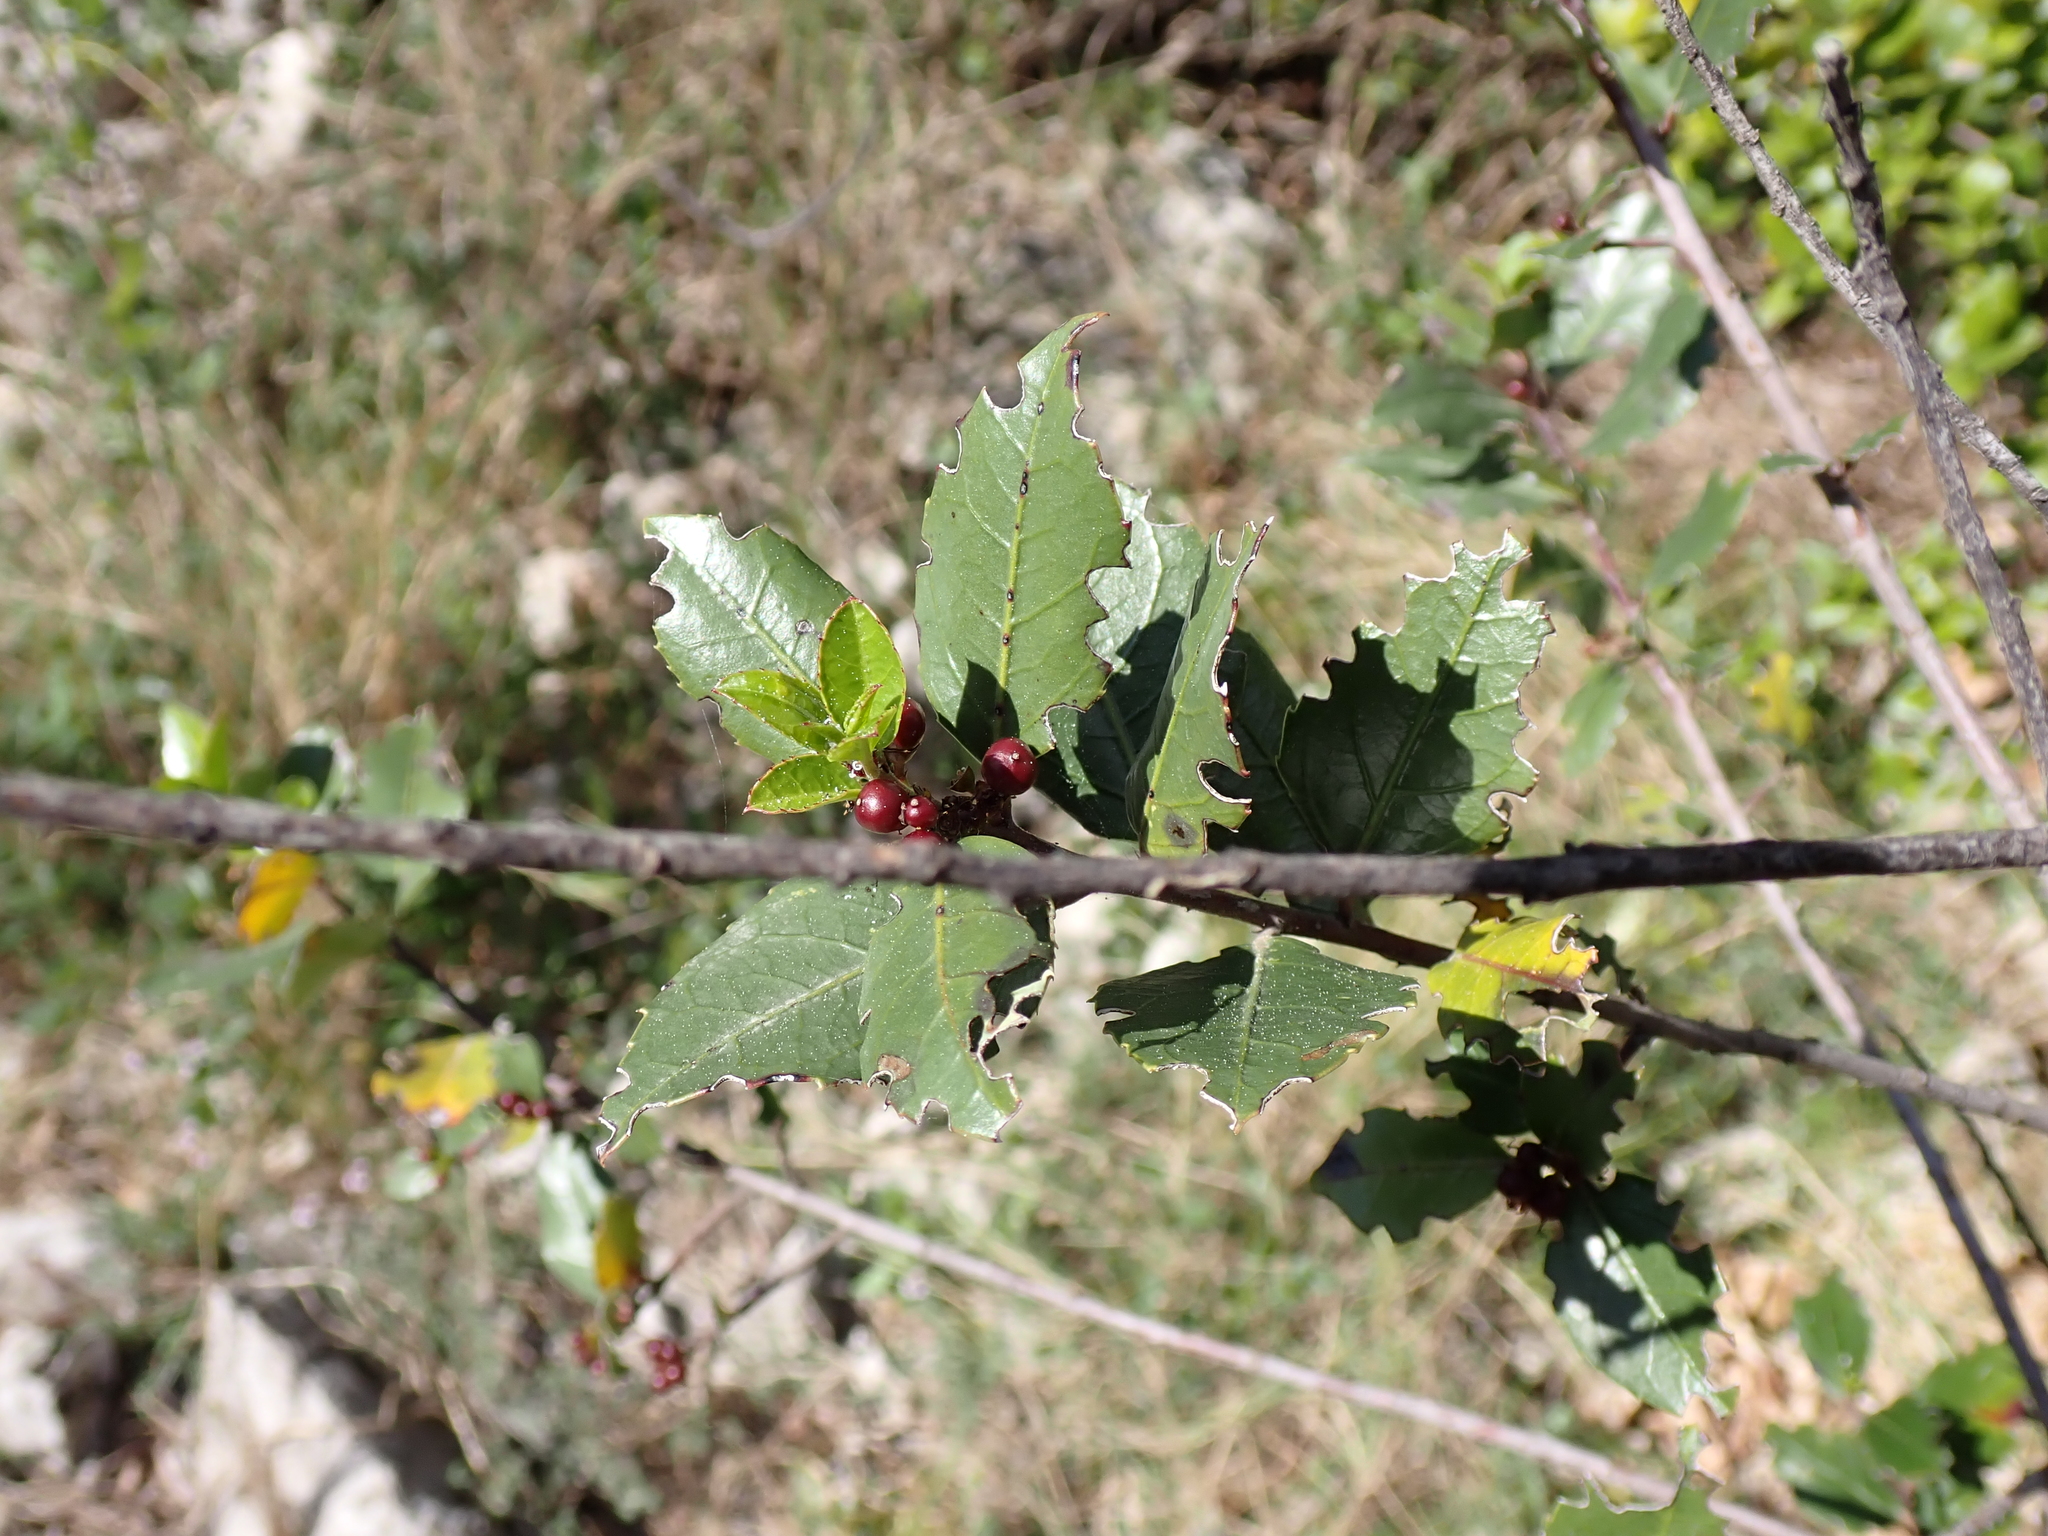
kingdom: Plantae
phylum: Tracheophyta
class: Magnoliopsida
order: Rosales
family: Rhamnaceae
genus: Rhamnus
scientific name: Rhamnus alaternus
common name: Mediterranean buckthorn
